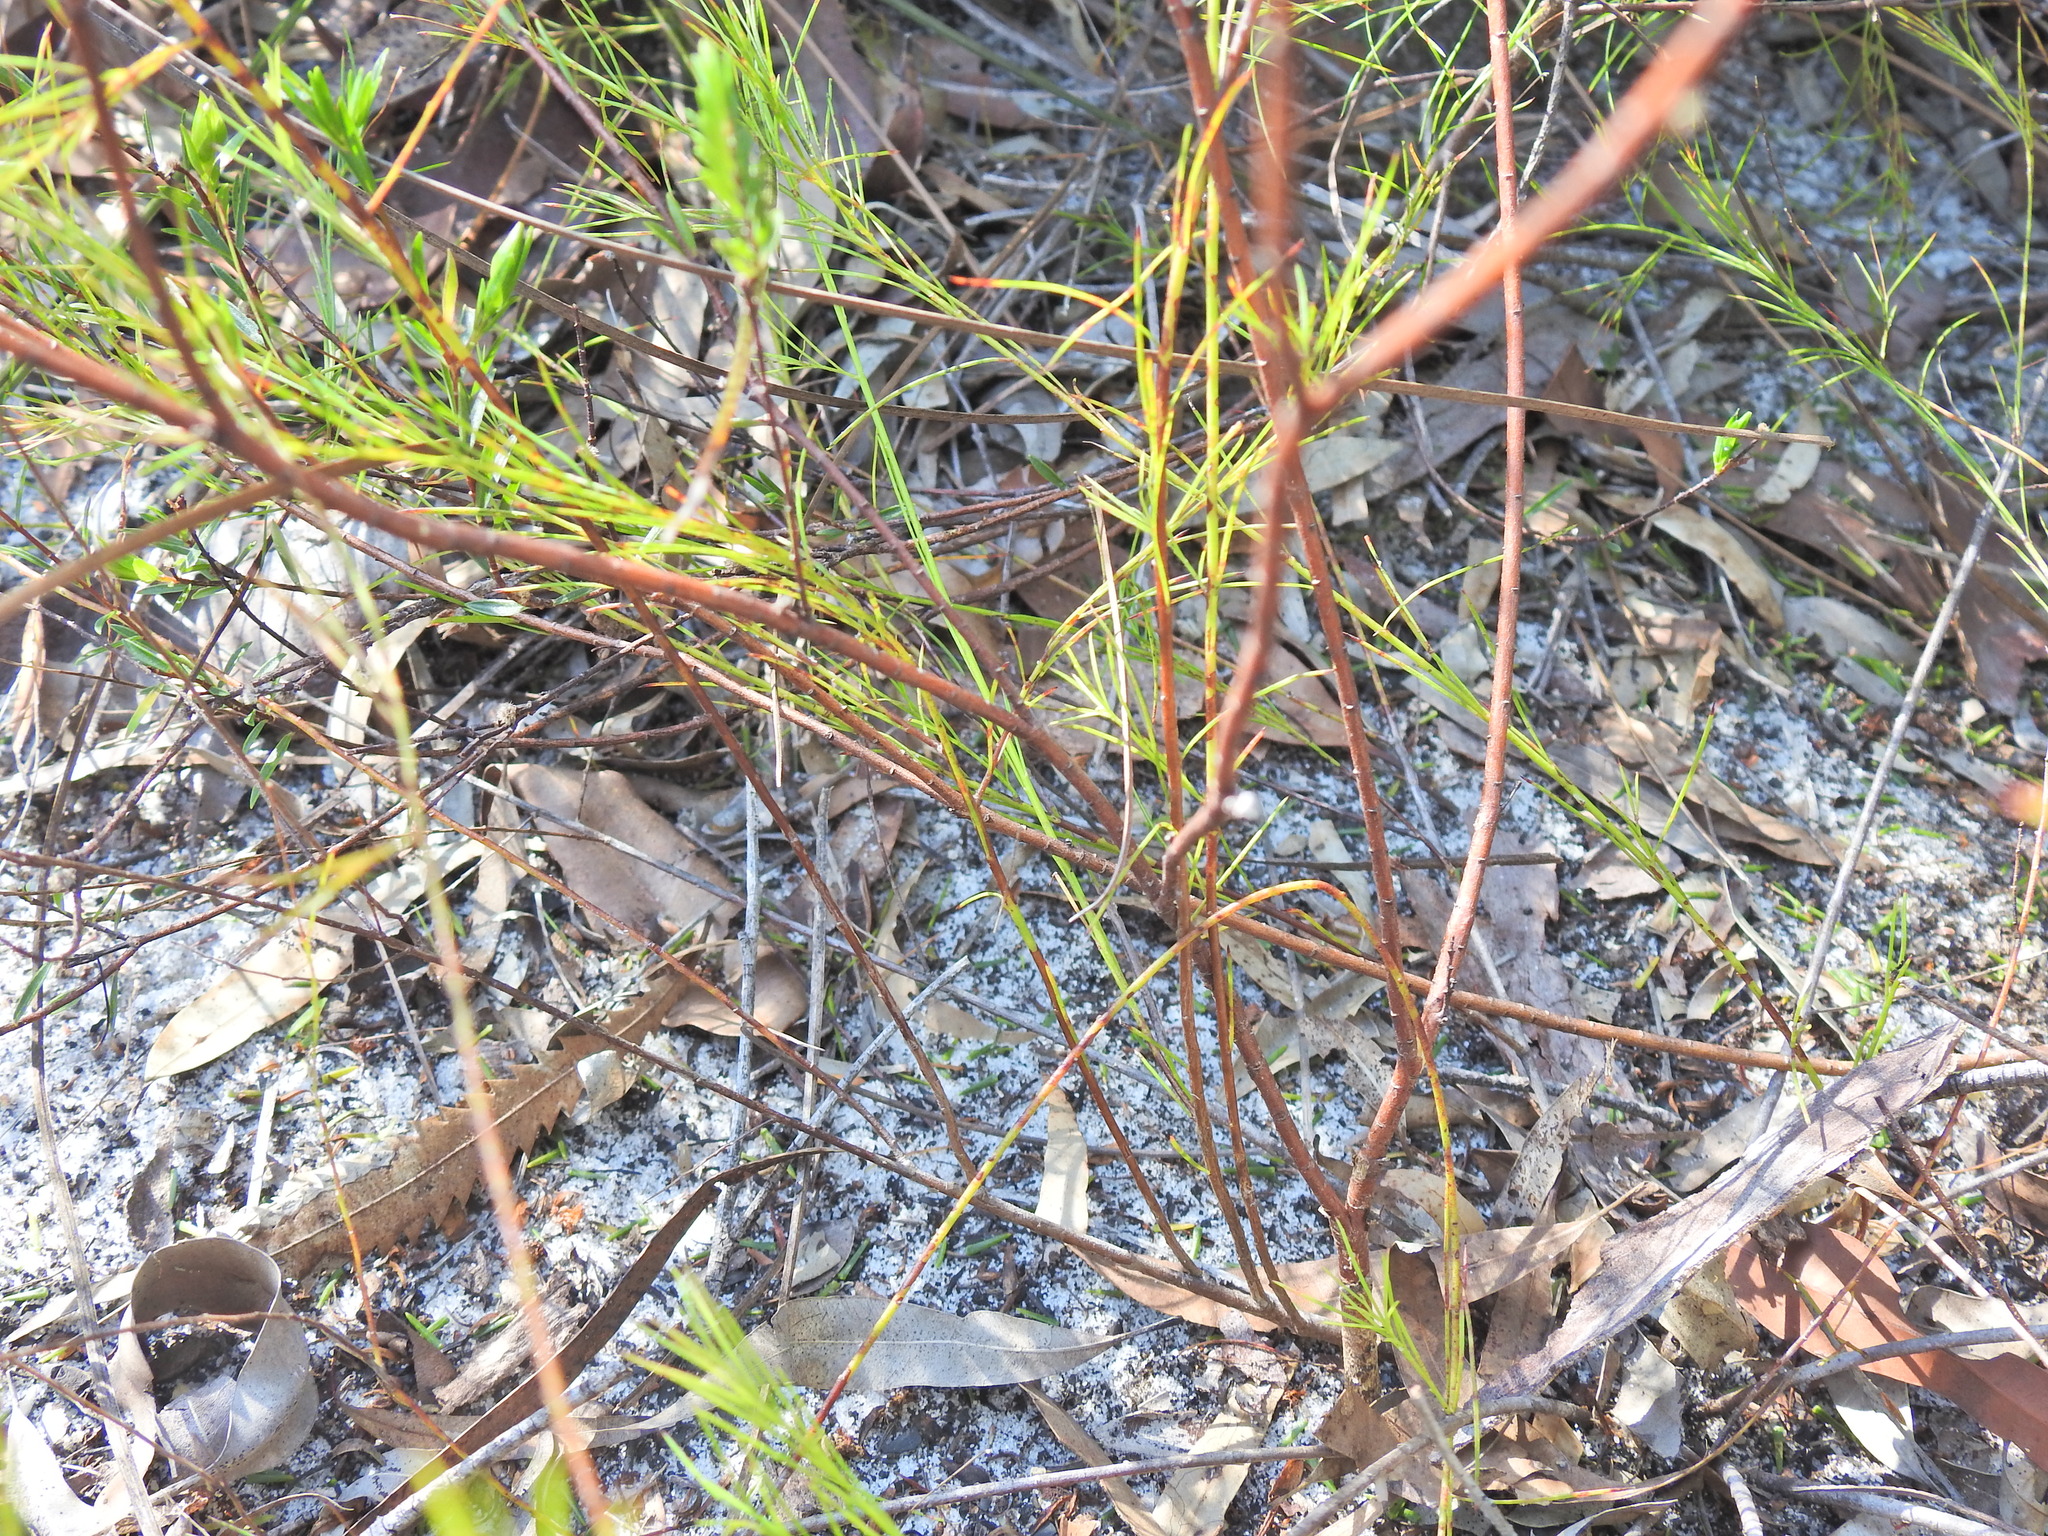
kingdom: Plantae
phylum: Tracheophyta
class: Magnoliopsida
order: Apiales
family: Apiaceae
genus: Platysace
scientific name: Platysace linearifolia
